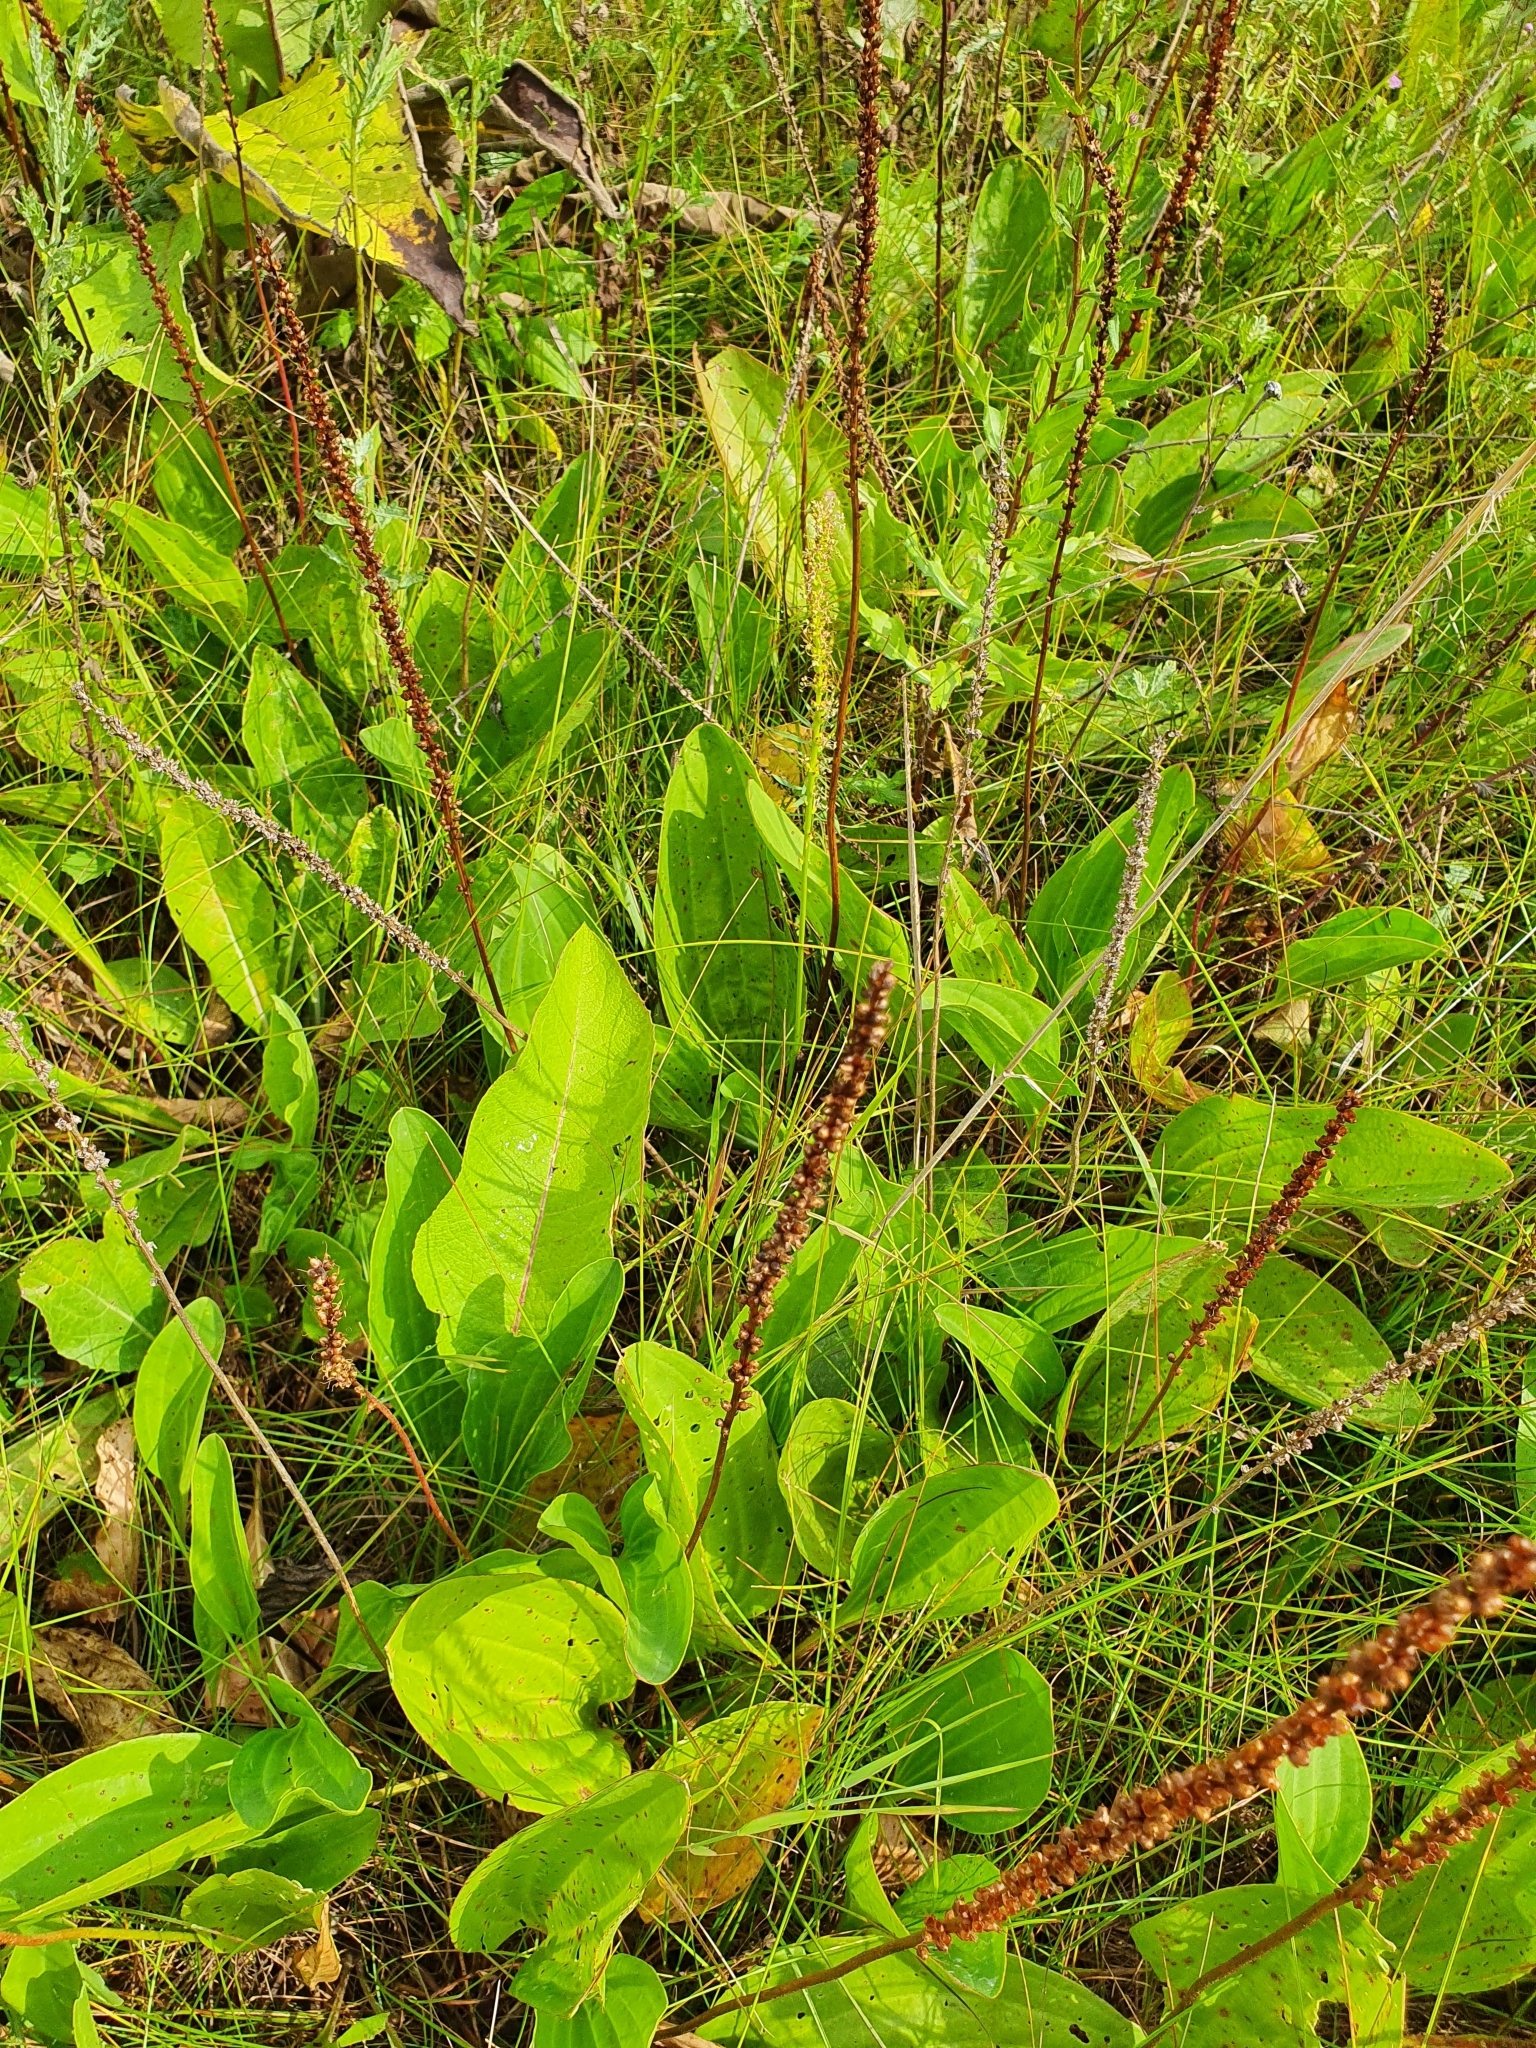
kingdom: Plantae
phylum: Tracheophyta
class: Magnoliopsida
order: Lamiales
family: Plantaginaceae
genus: Plantago
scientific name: Plantago cornuti
